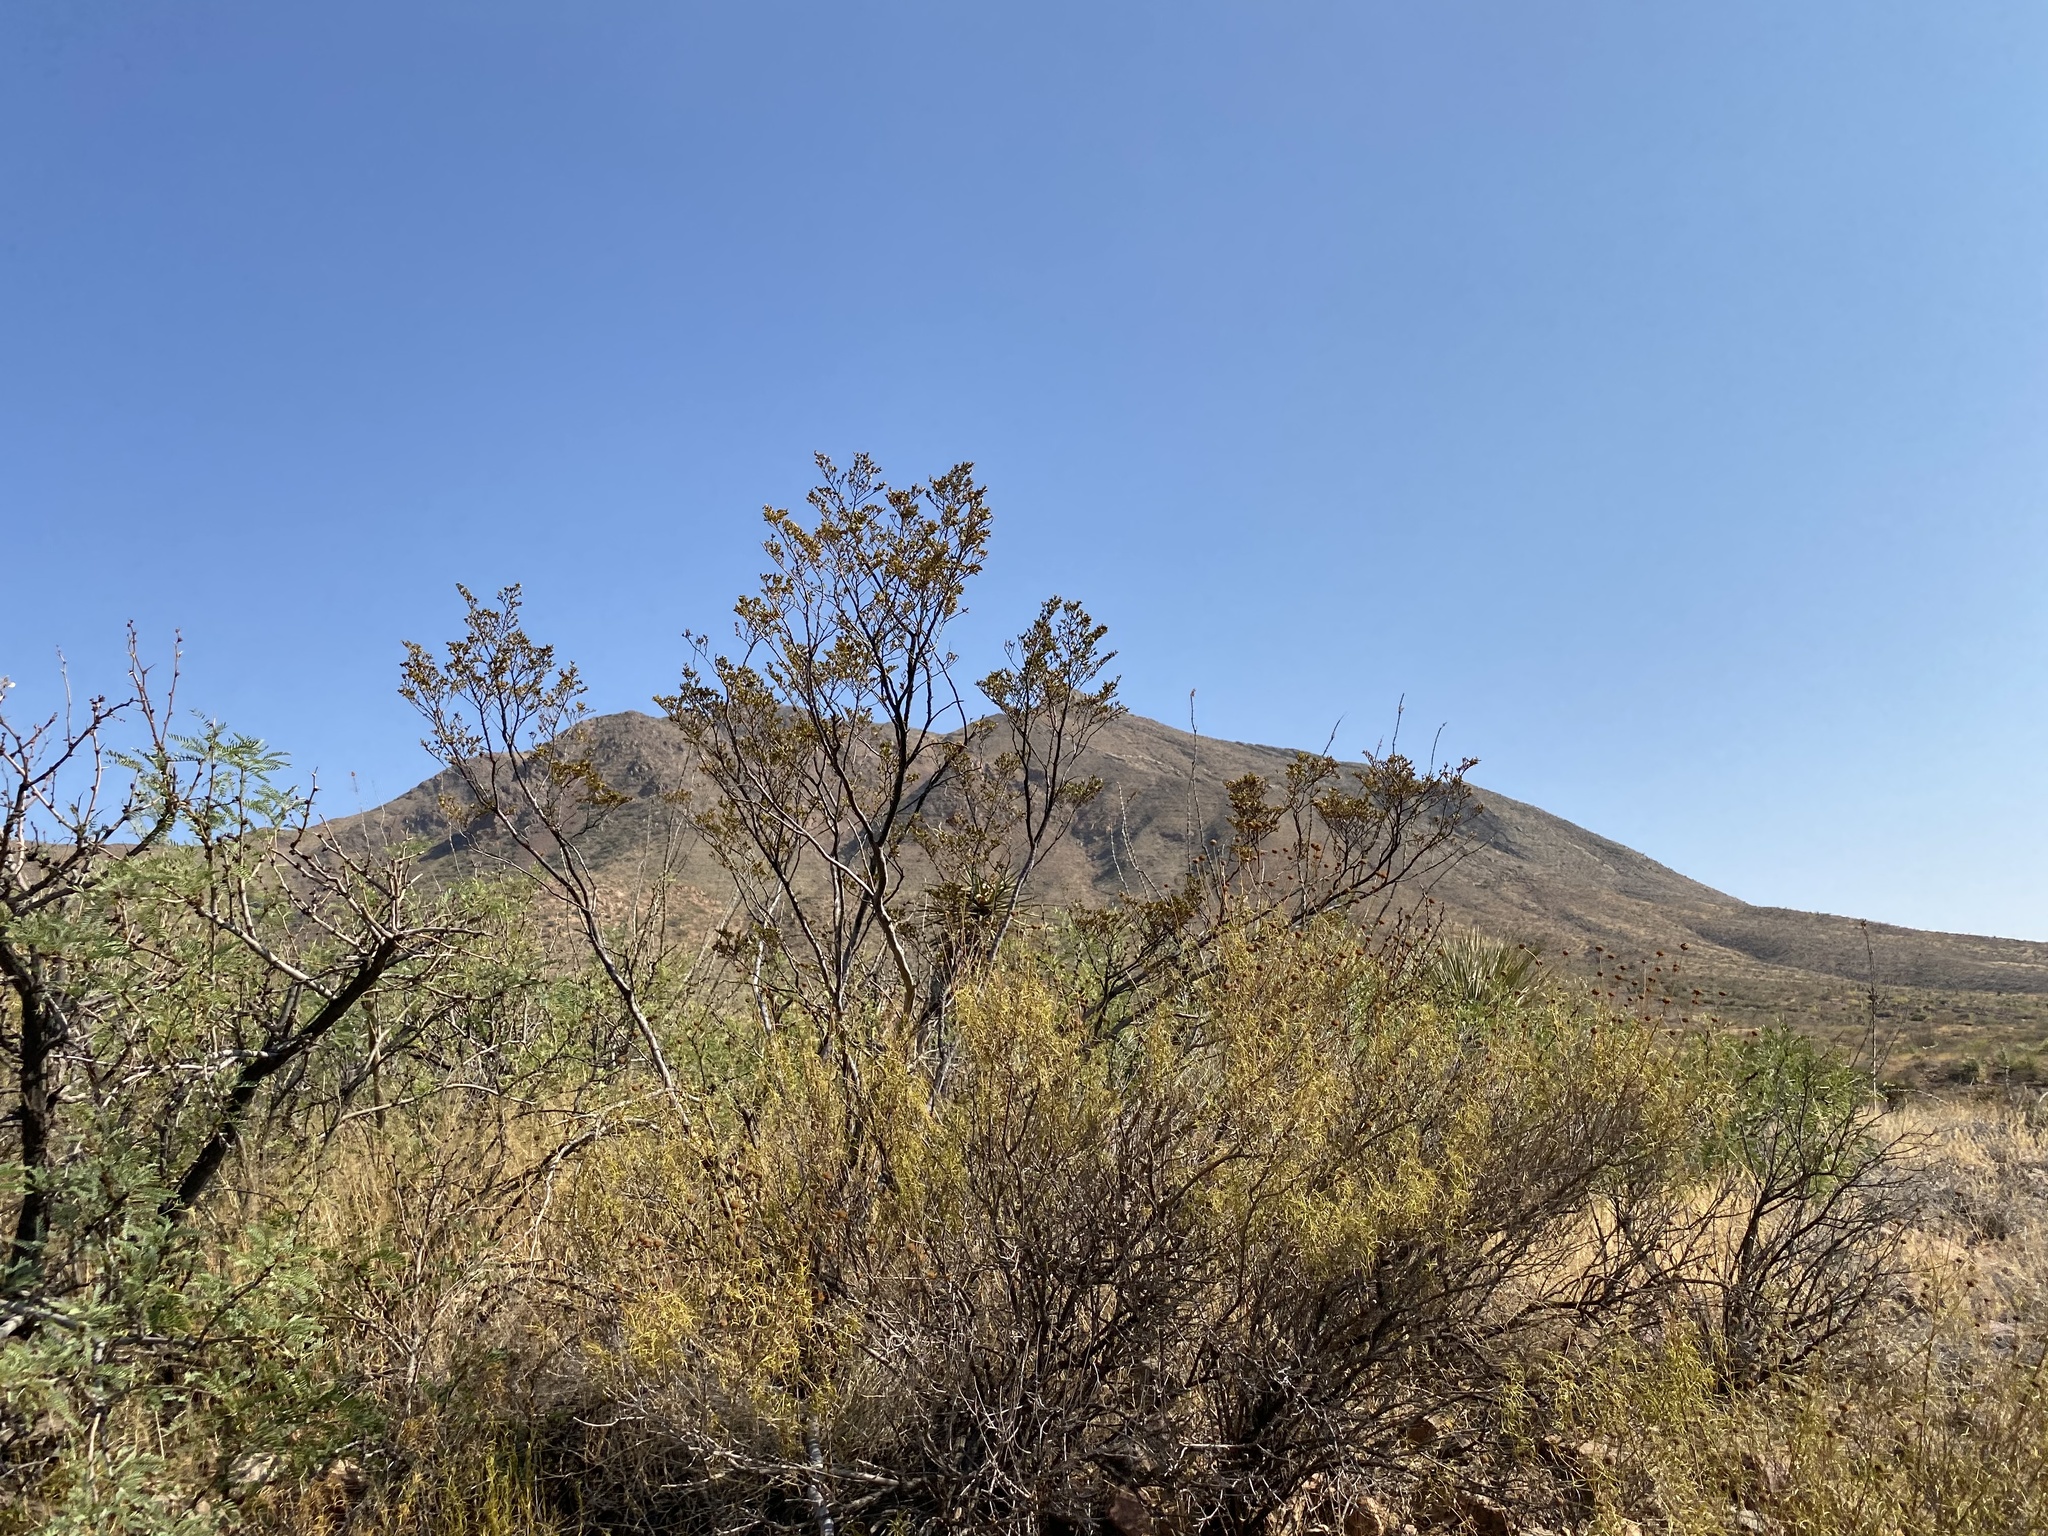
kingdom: Plantae
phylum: Tracheophyta
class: Magnoliopsida
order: Zygophyllales
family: Zygophyllaceae
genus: Larrea
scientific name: Larrea tridentata
